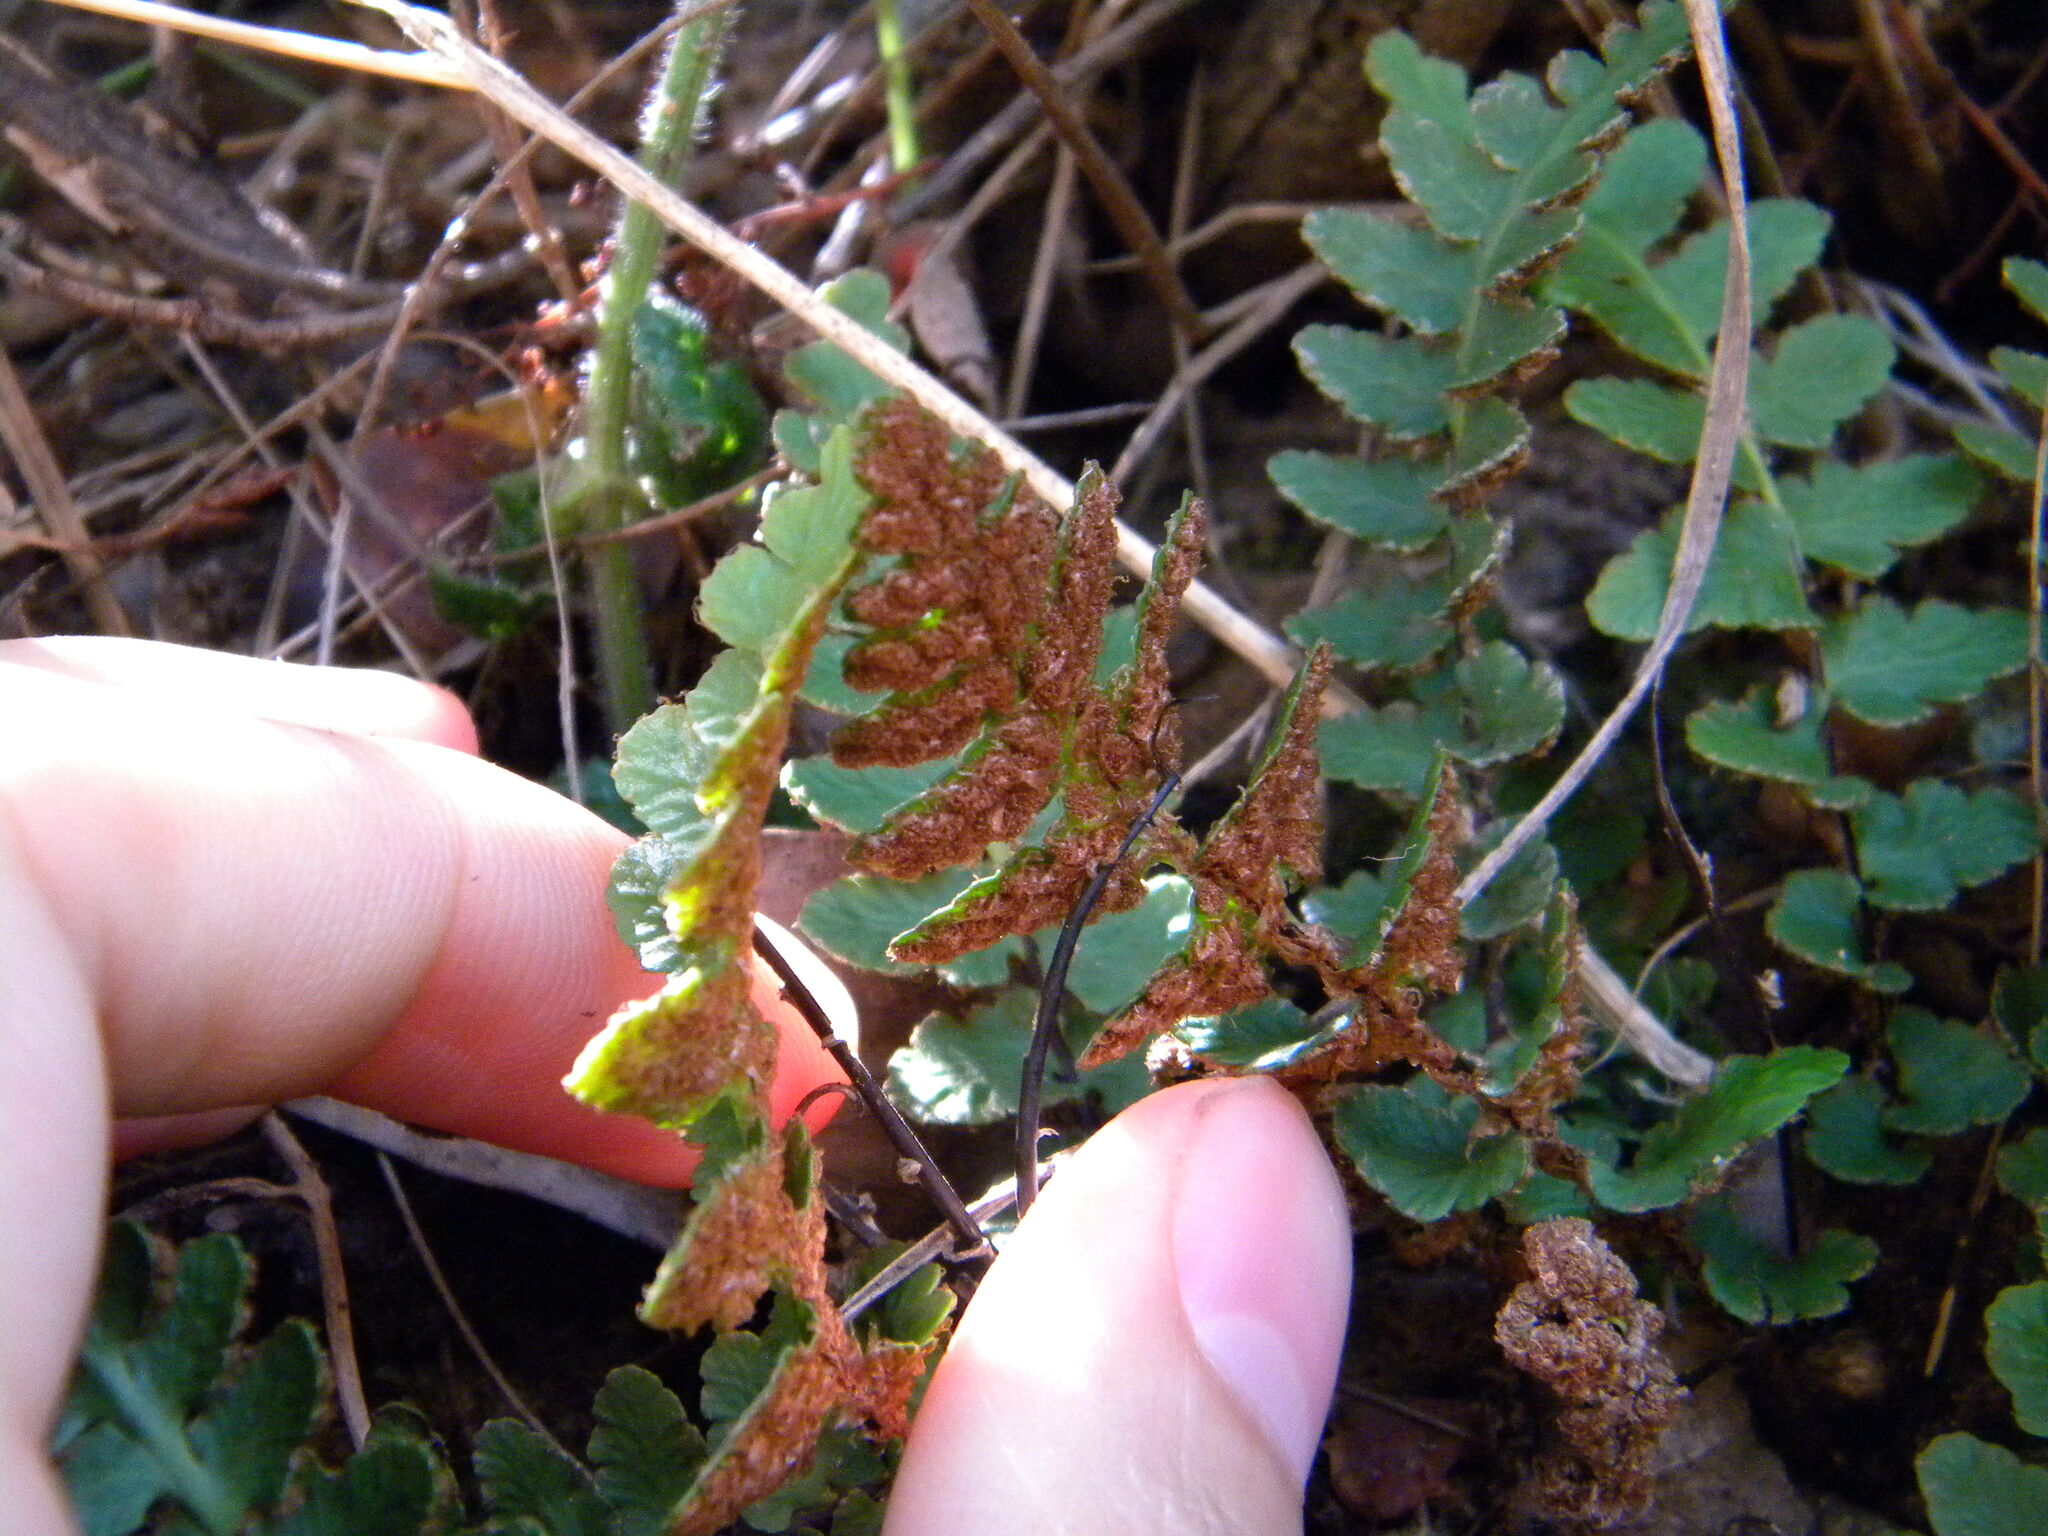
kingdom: Plantae
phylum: Tracheophyta
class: Polypodiopsida
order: Polypodiales
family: Aspleniaceae
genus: Asplenium
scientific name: Asplenium cordatum
